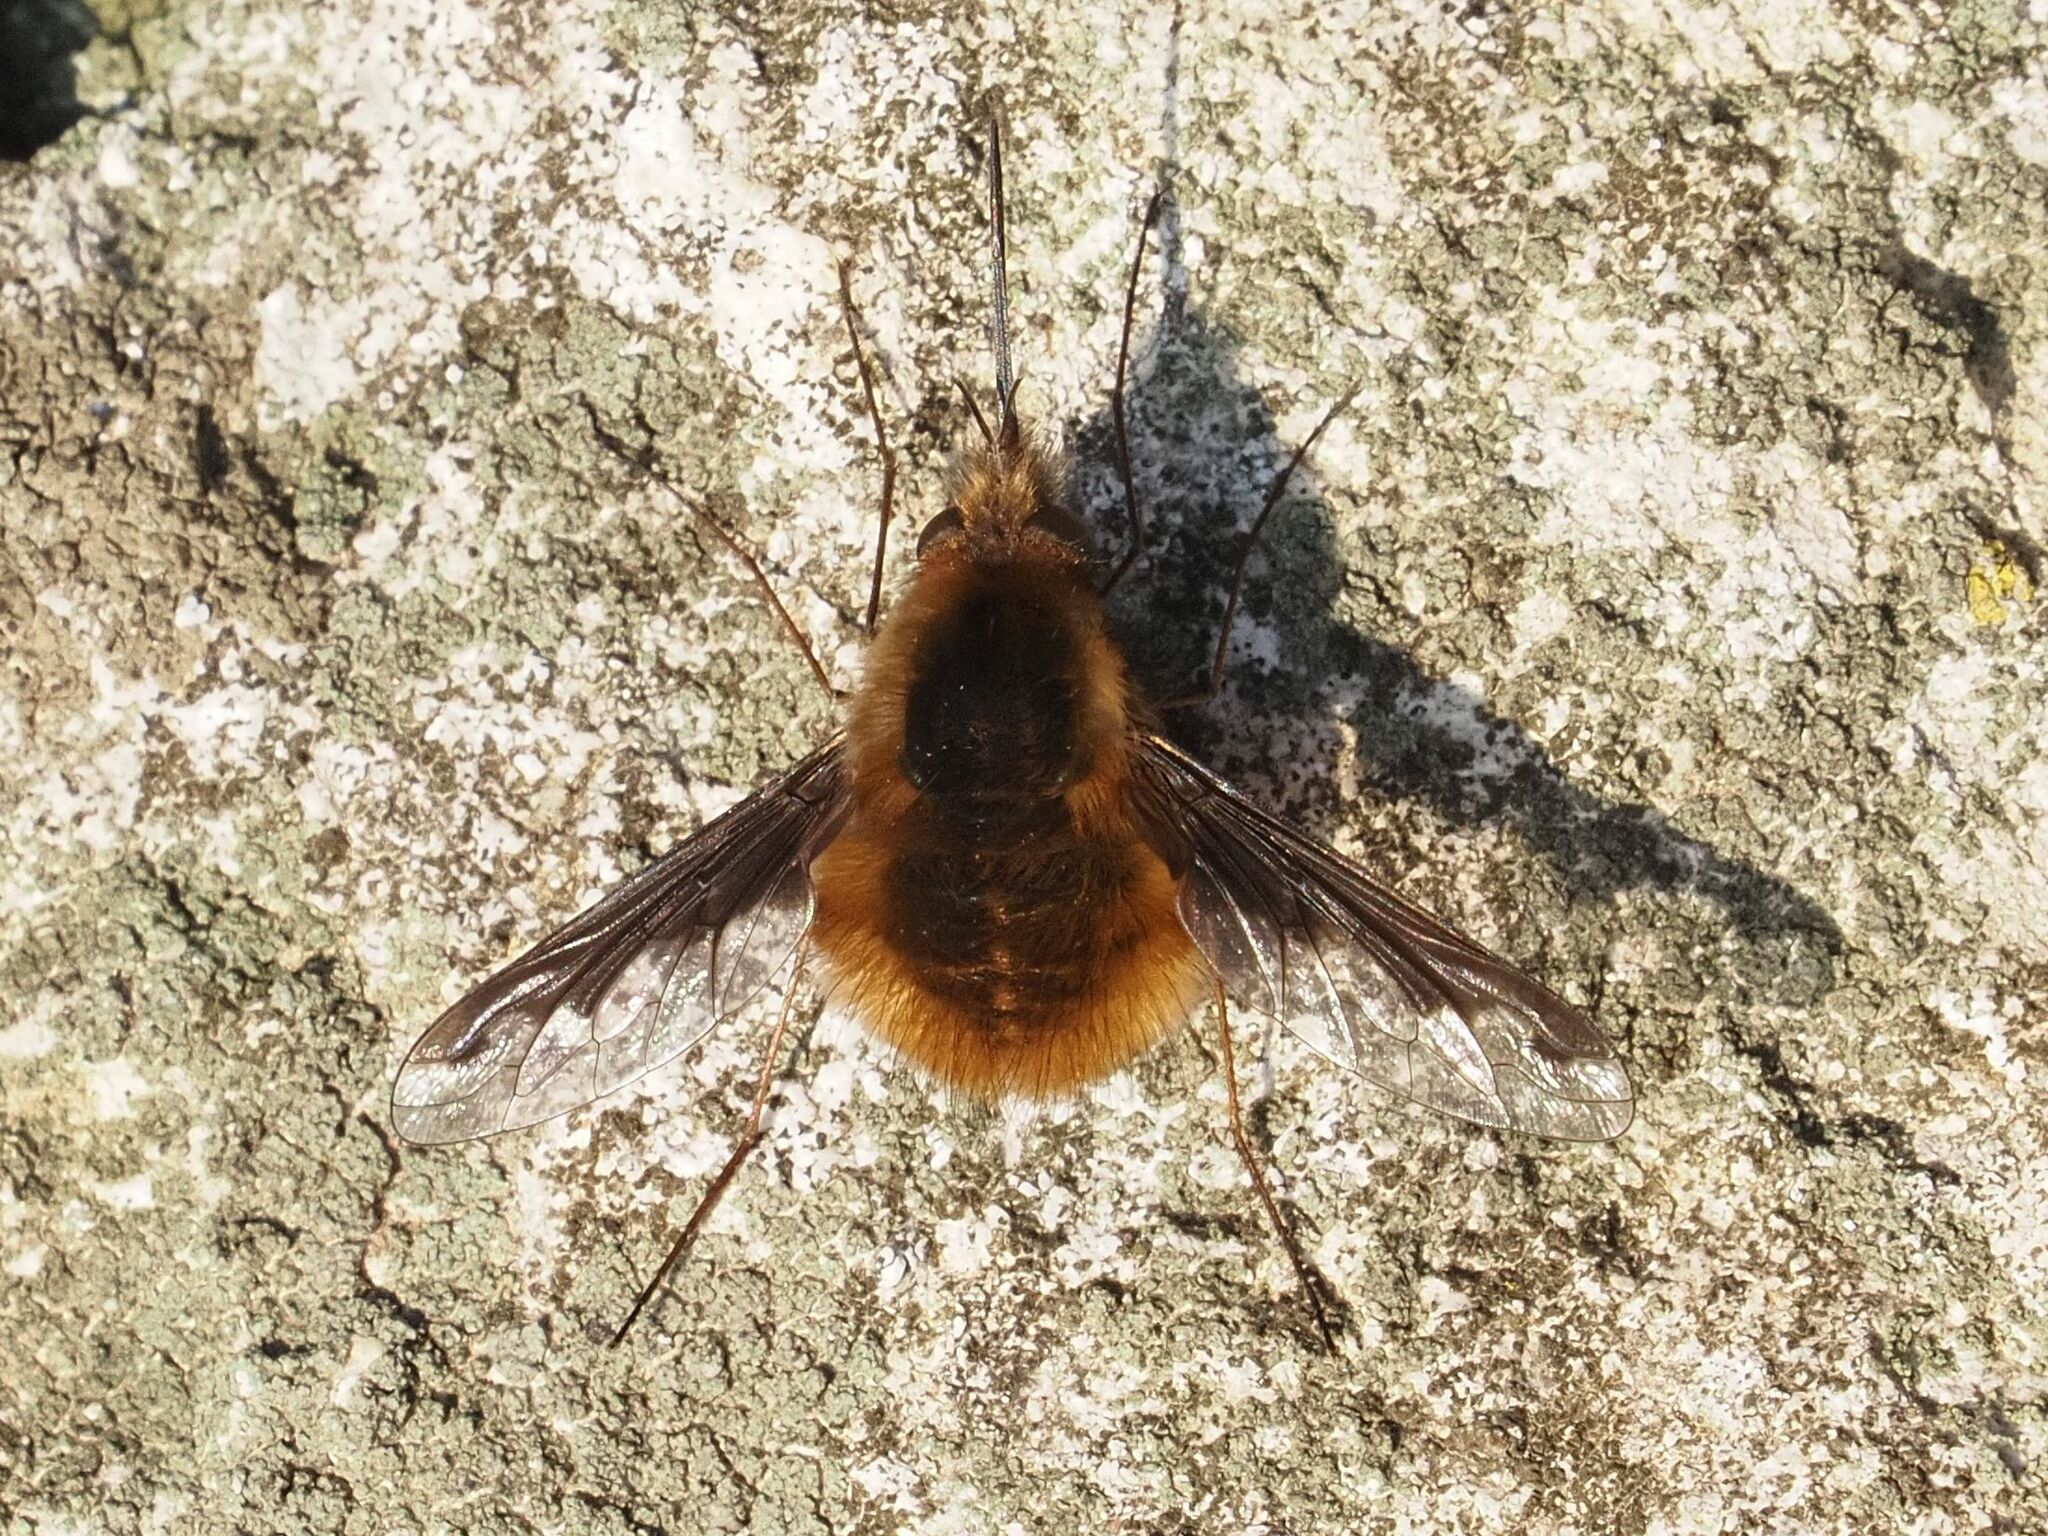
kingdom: Animalia
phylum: Arthropoda
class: Insecta
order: Diptera
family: Bombyliidae
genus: Bombylius
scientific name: Bombylius major
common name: Bee fly
